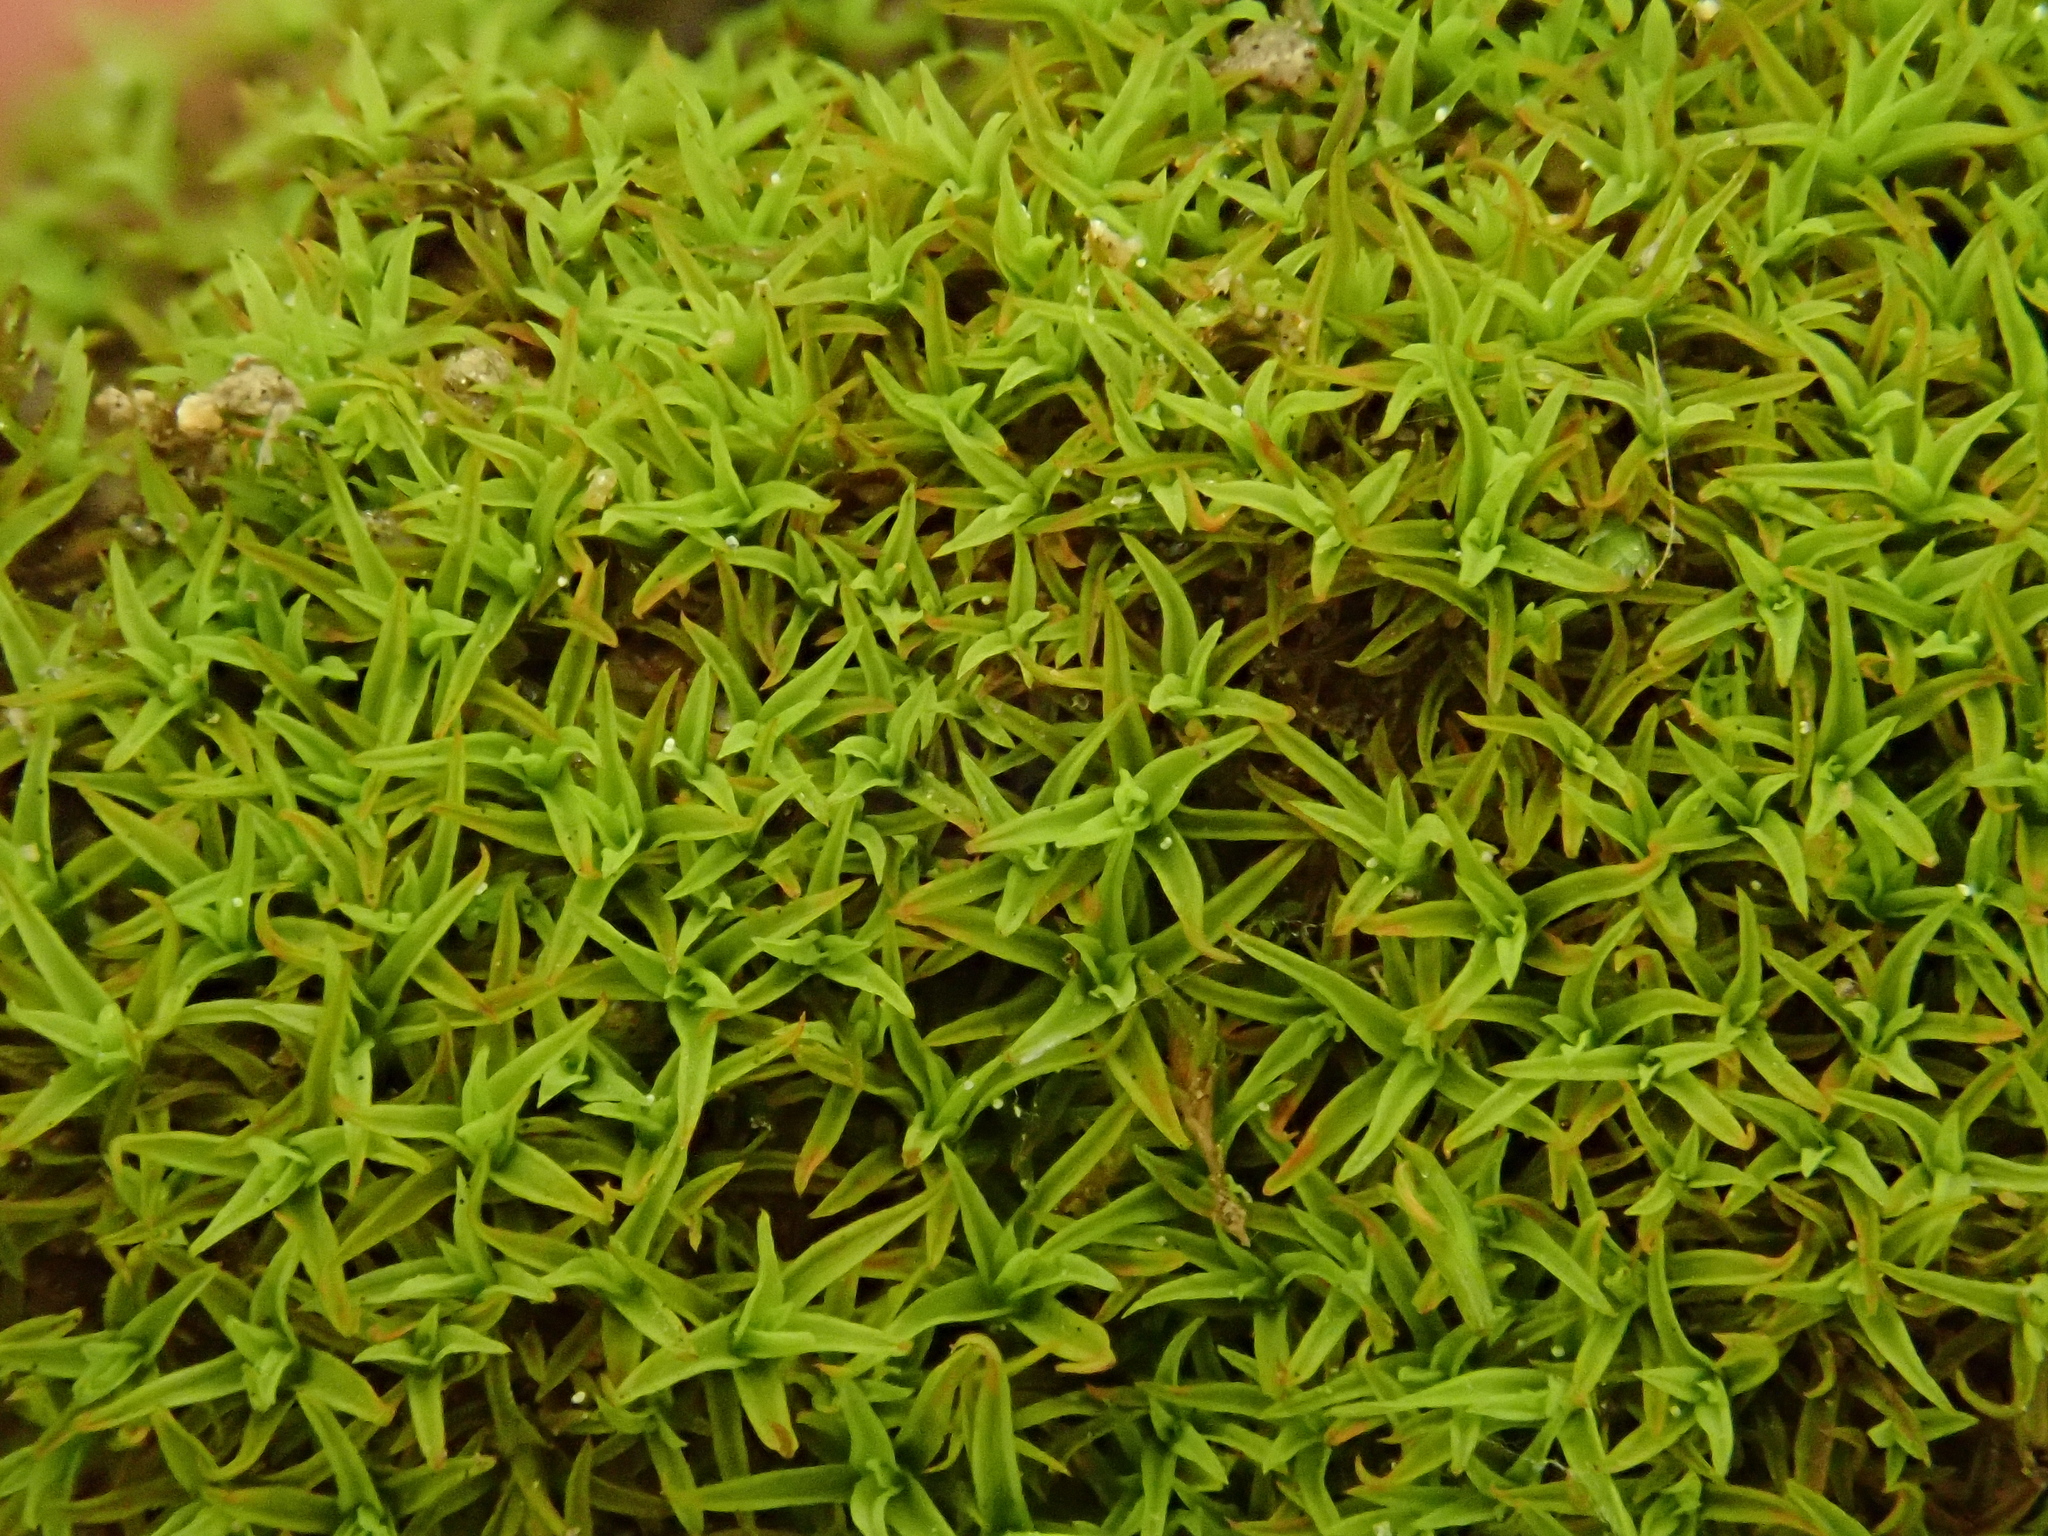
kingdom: Plantae
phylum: Bryophyta
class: Bryopsida
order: Pottiales
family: Pottiaceae
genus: Bryoerythrophyllum
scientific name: Bryoerythrophyllum recurvirostrum
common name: Red beard moss
